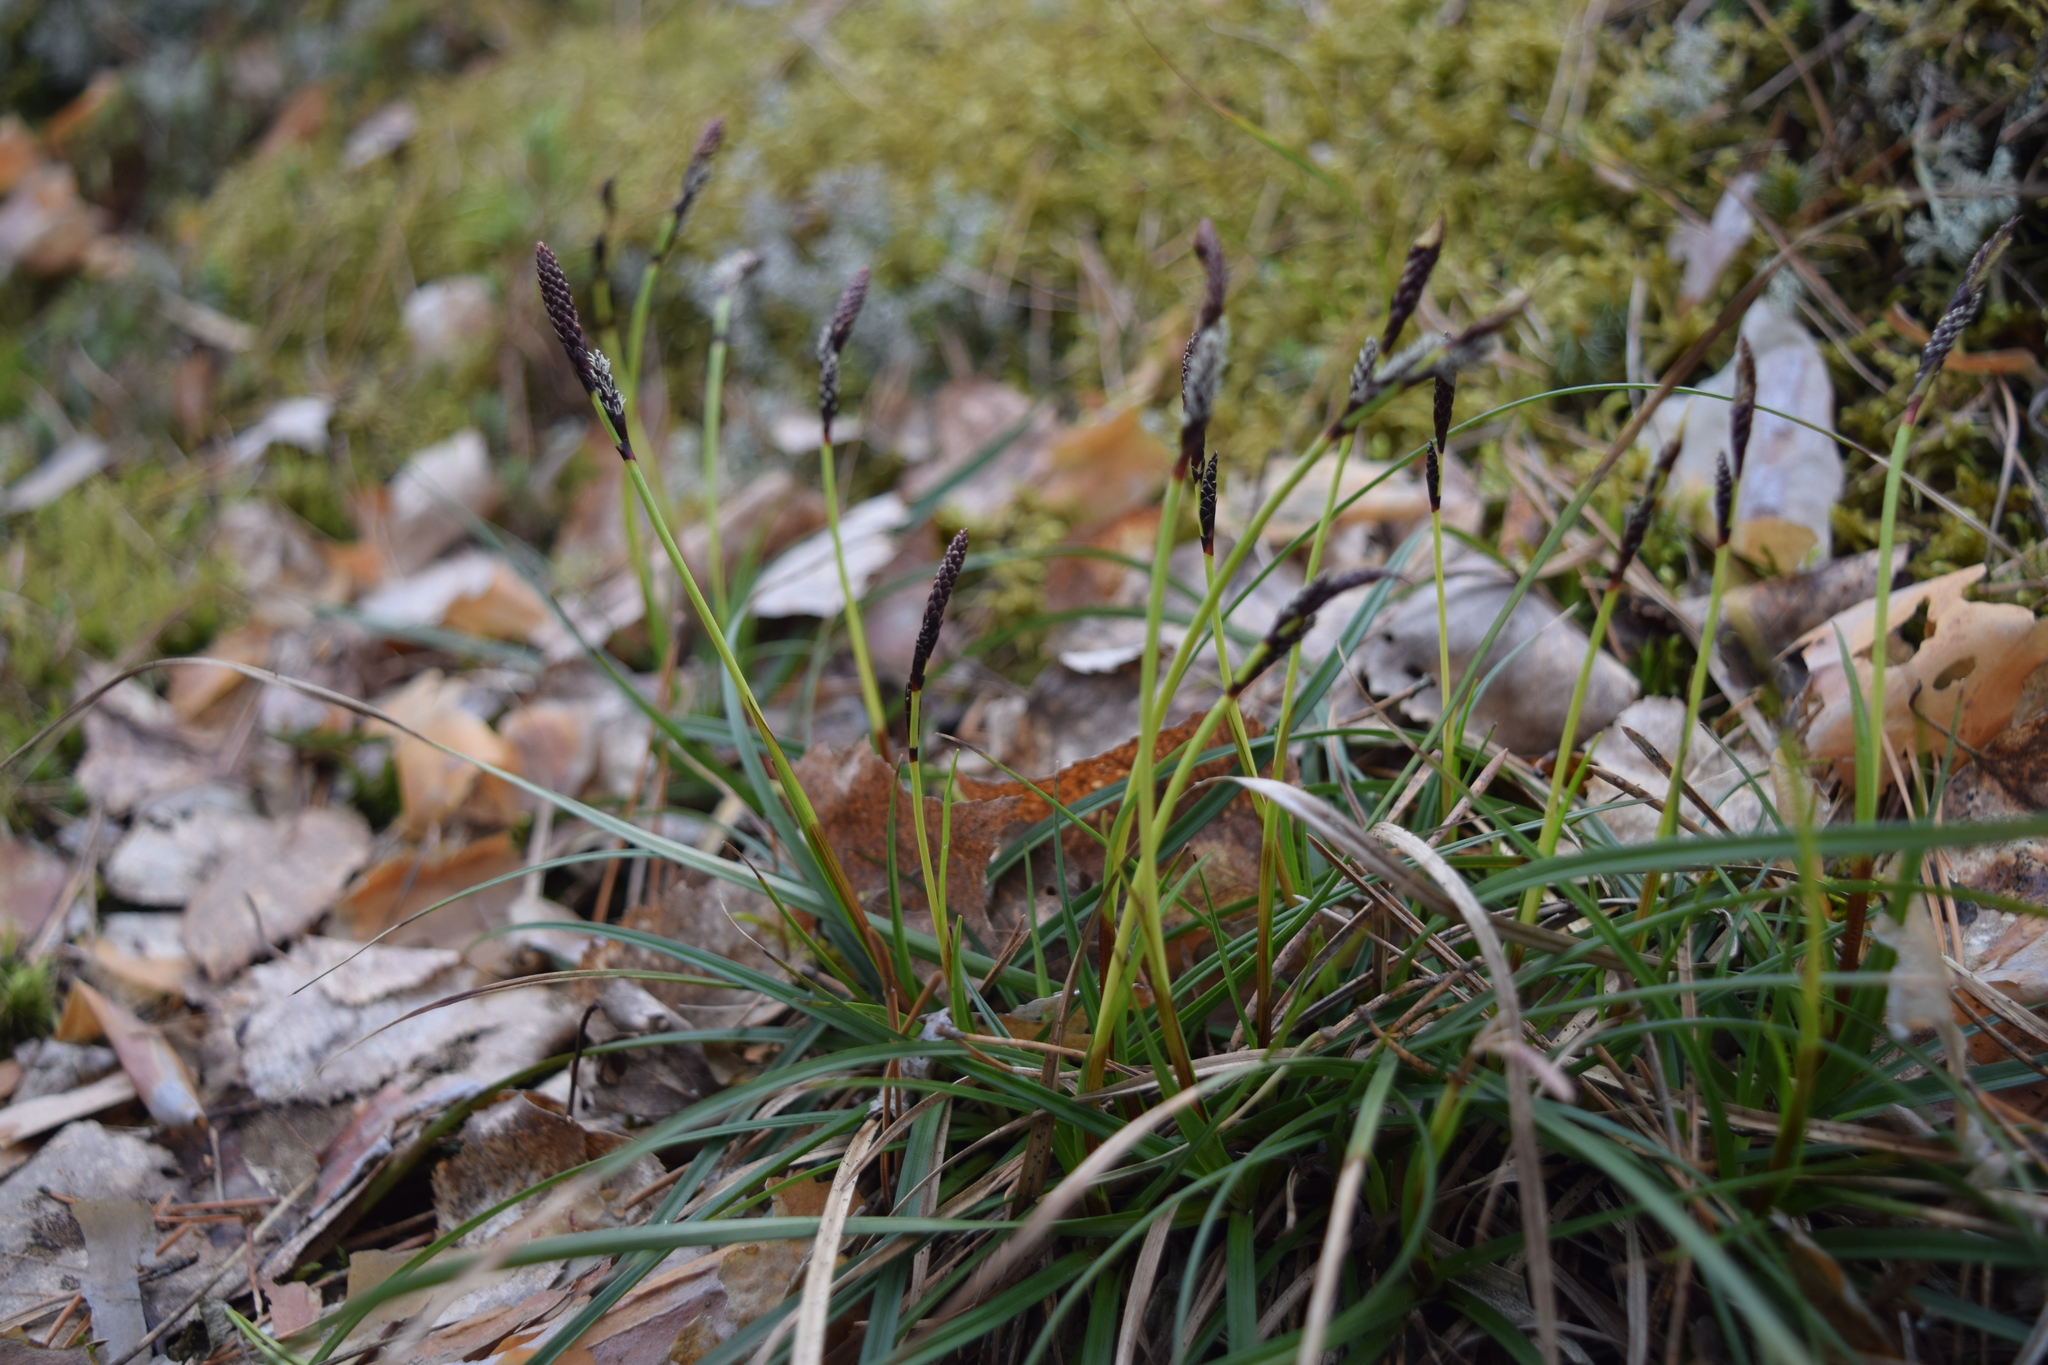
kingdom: Plantae
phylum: Tracheophyta
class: Liliopsida
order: Poales
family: Cyperaceae
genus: Carex
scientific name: Carex digitata
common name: Fingered sedge
